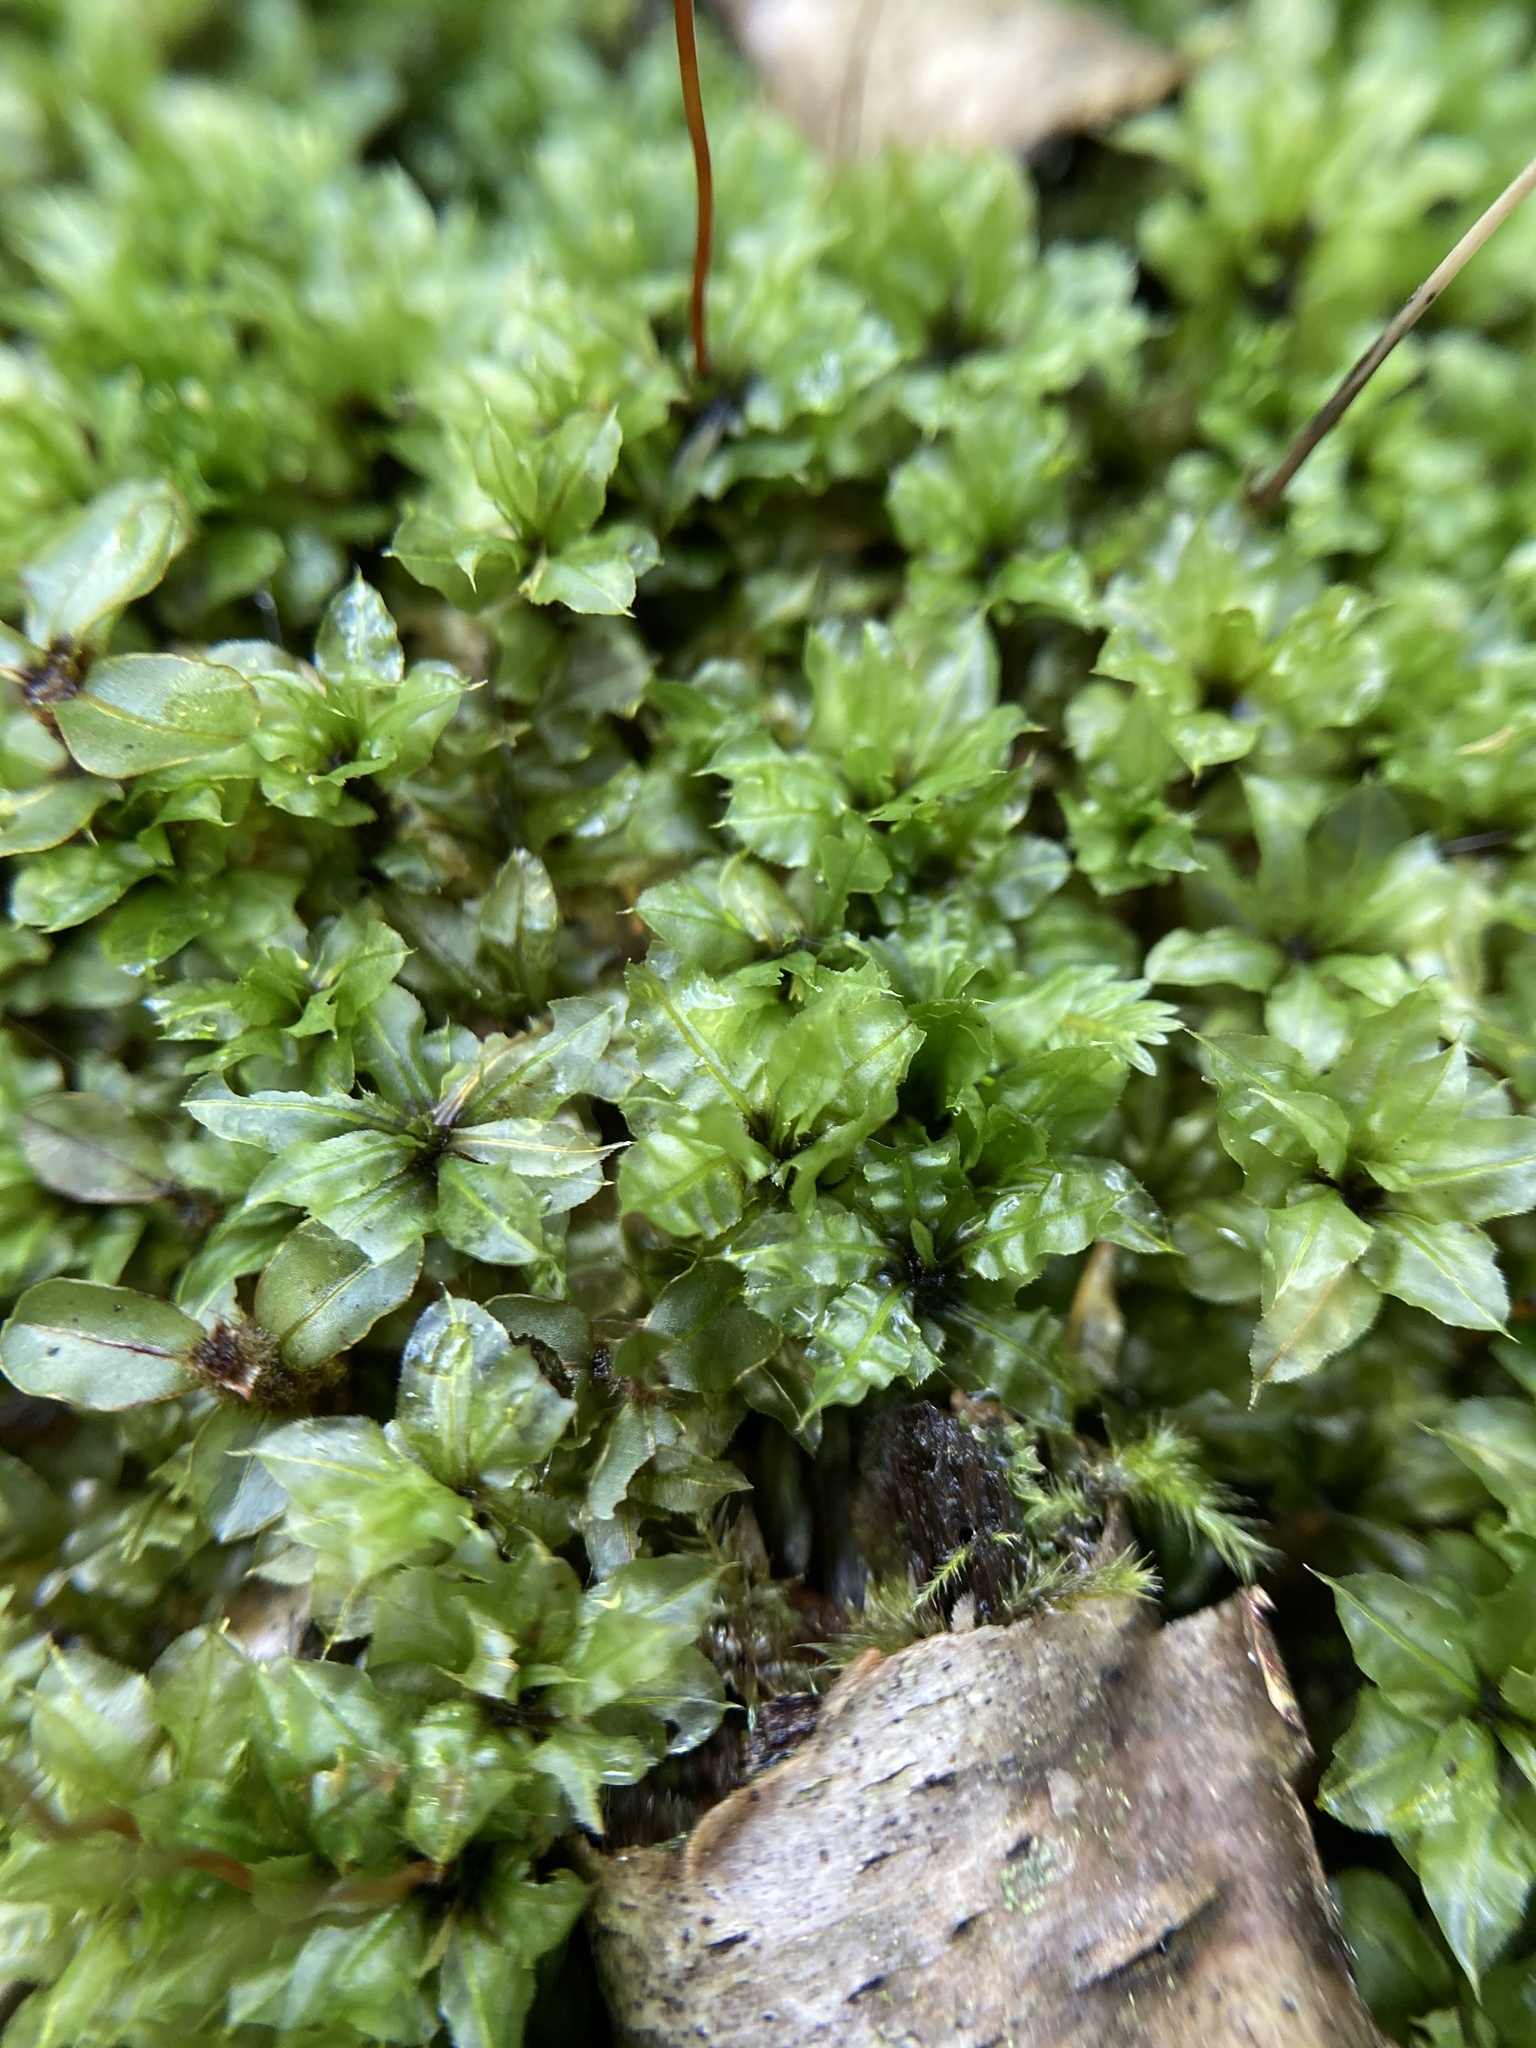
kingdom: Plantae
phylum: Bryophyta
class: Bryopsida
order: Bryales
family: Mniaceae
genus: Plagiomnium
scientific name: Plagiomnium ciliare
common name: Toothed leafy moss
